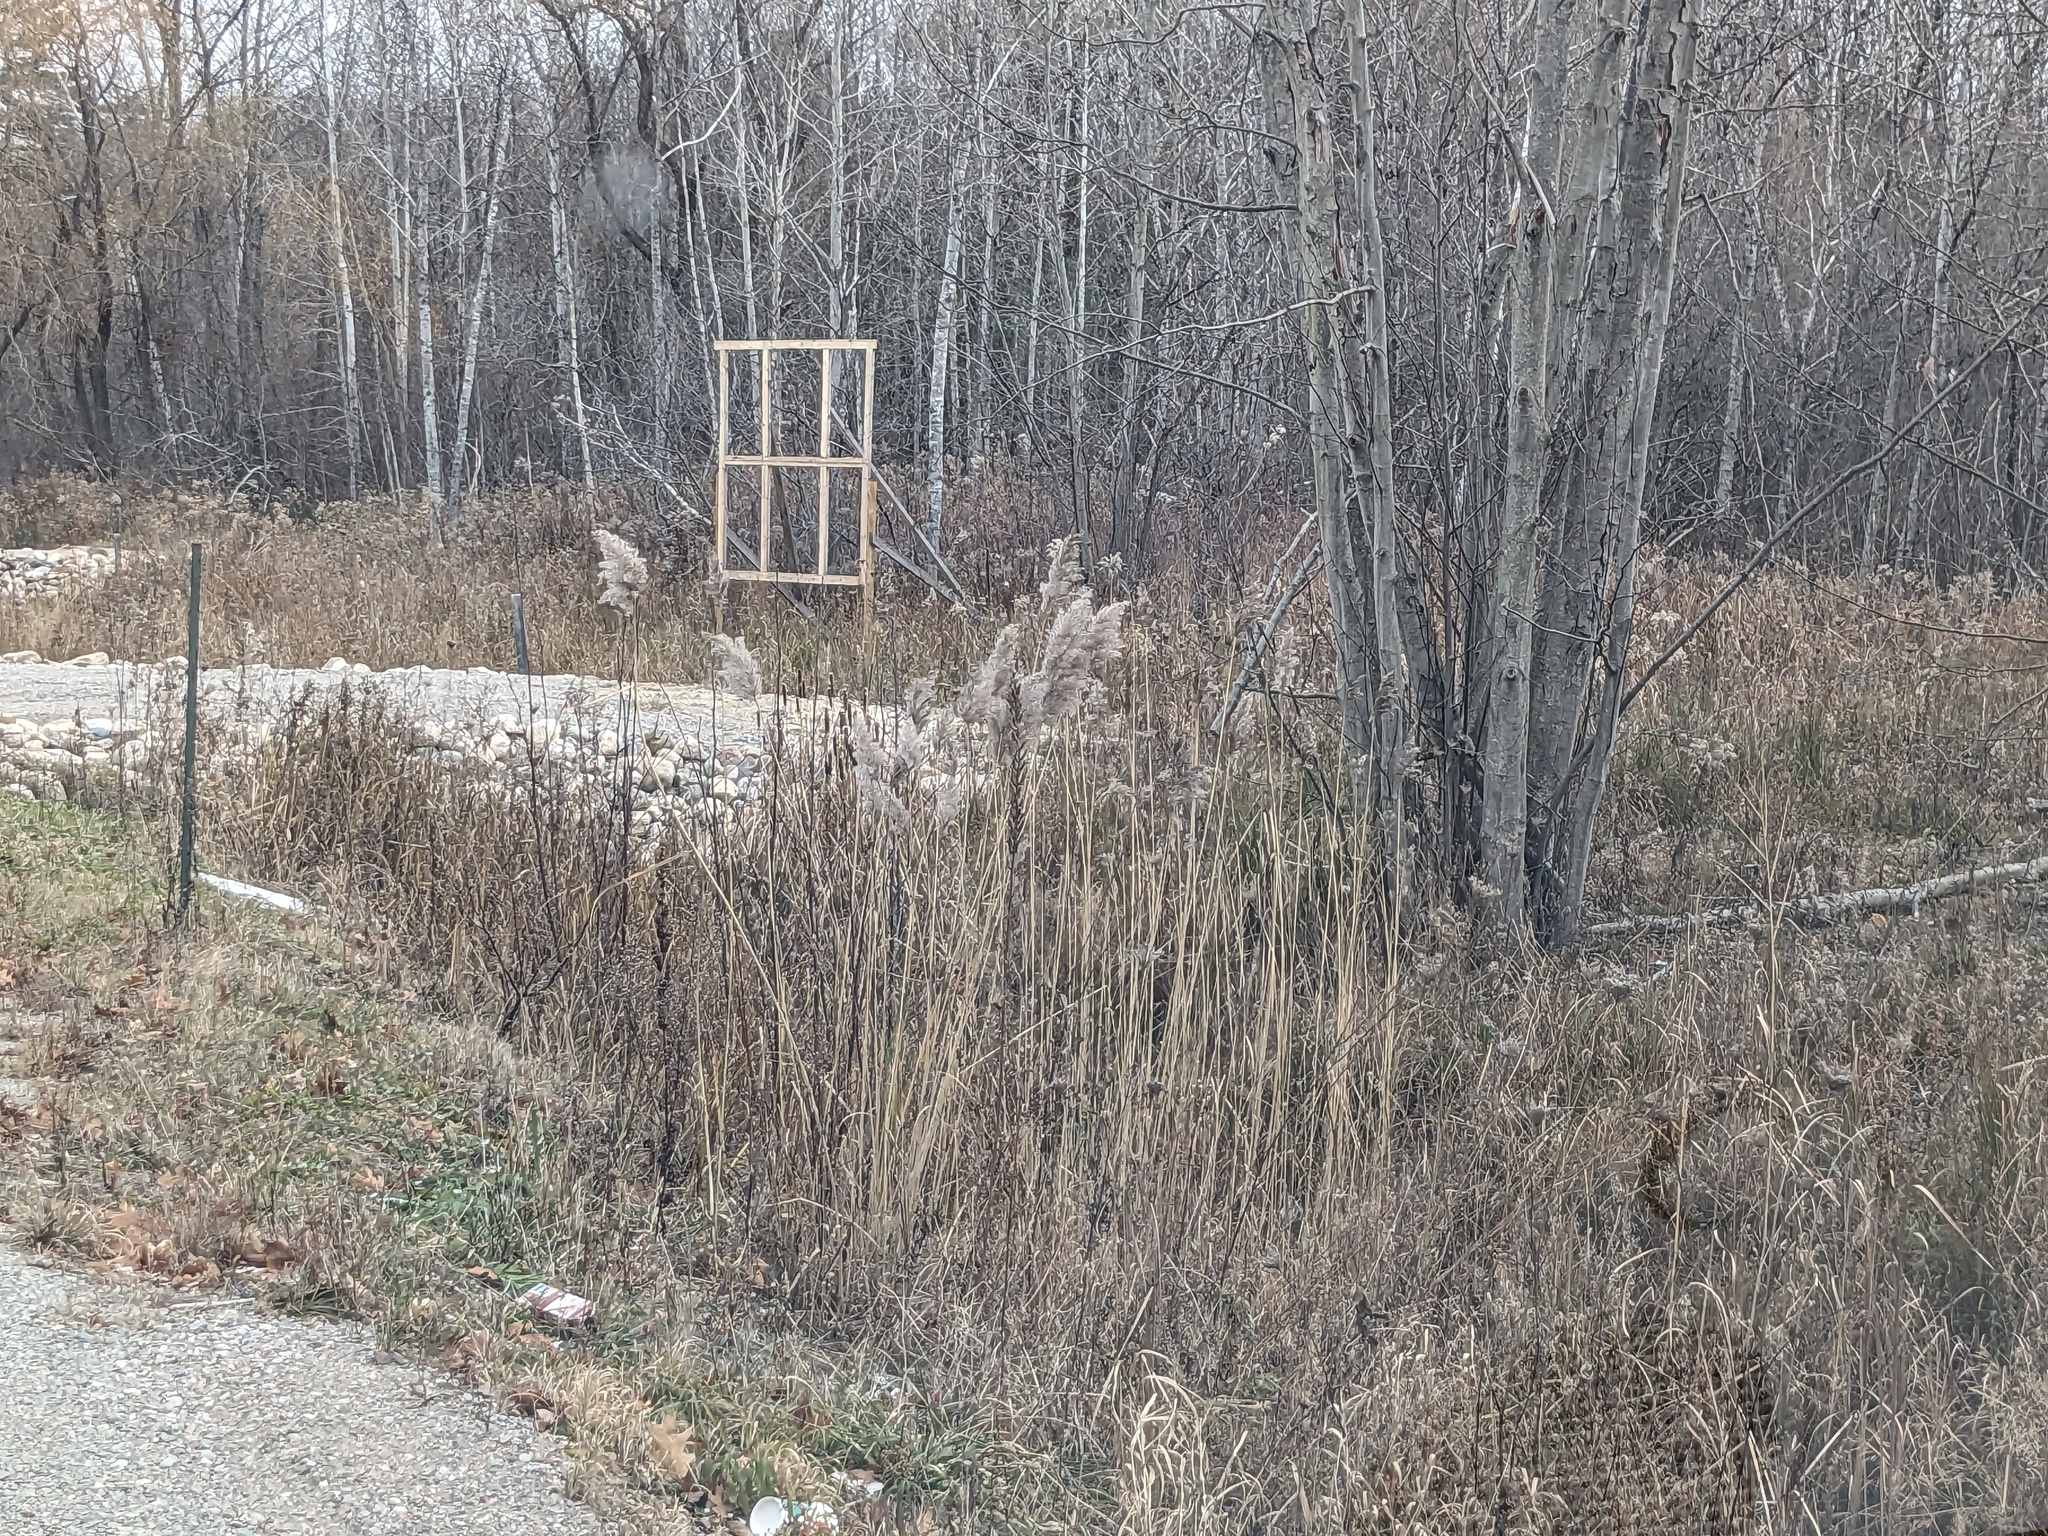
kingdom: Plantae
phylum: Tracheophyta
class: Liliopsida
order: Poales
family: Poaceae
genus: Phragmites
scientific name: Phragmites australis
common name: Common reed
